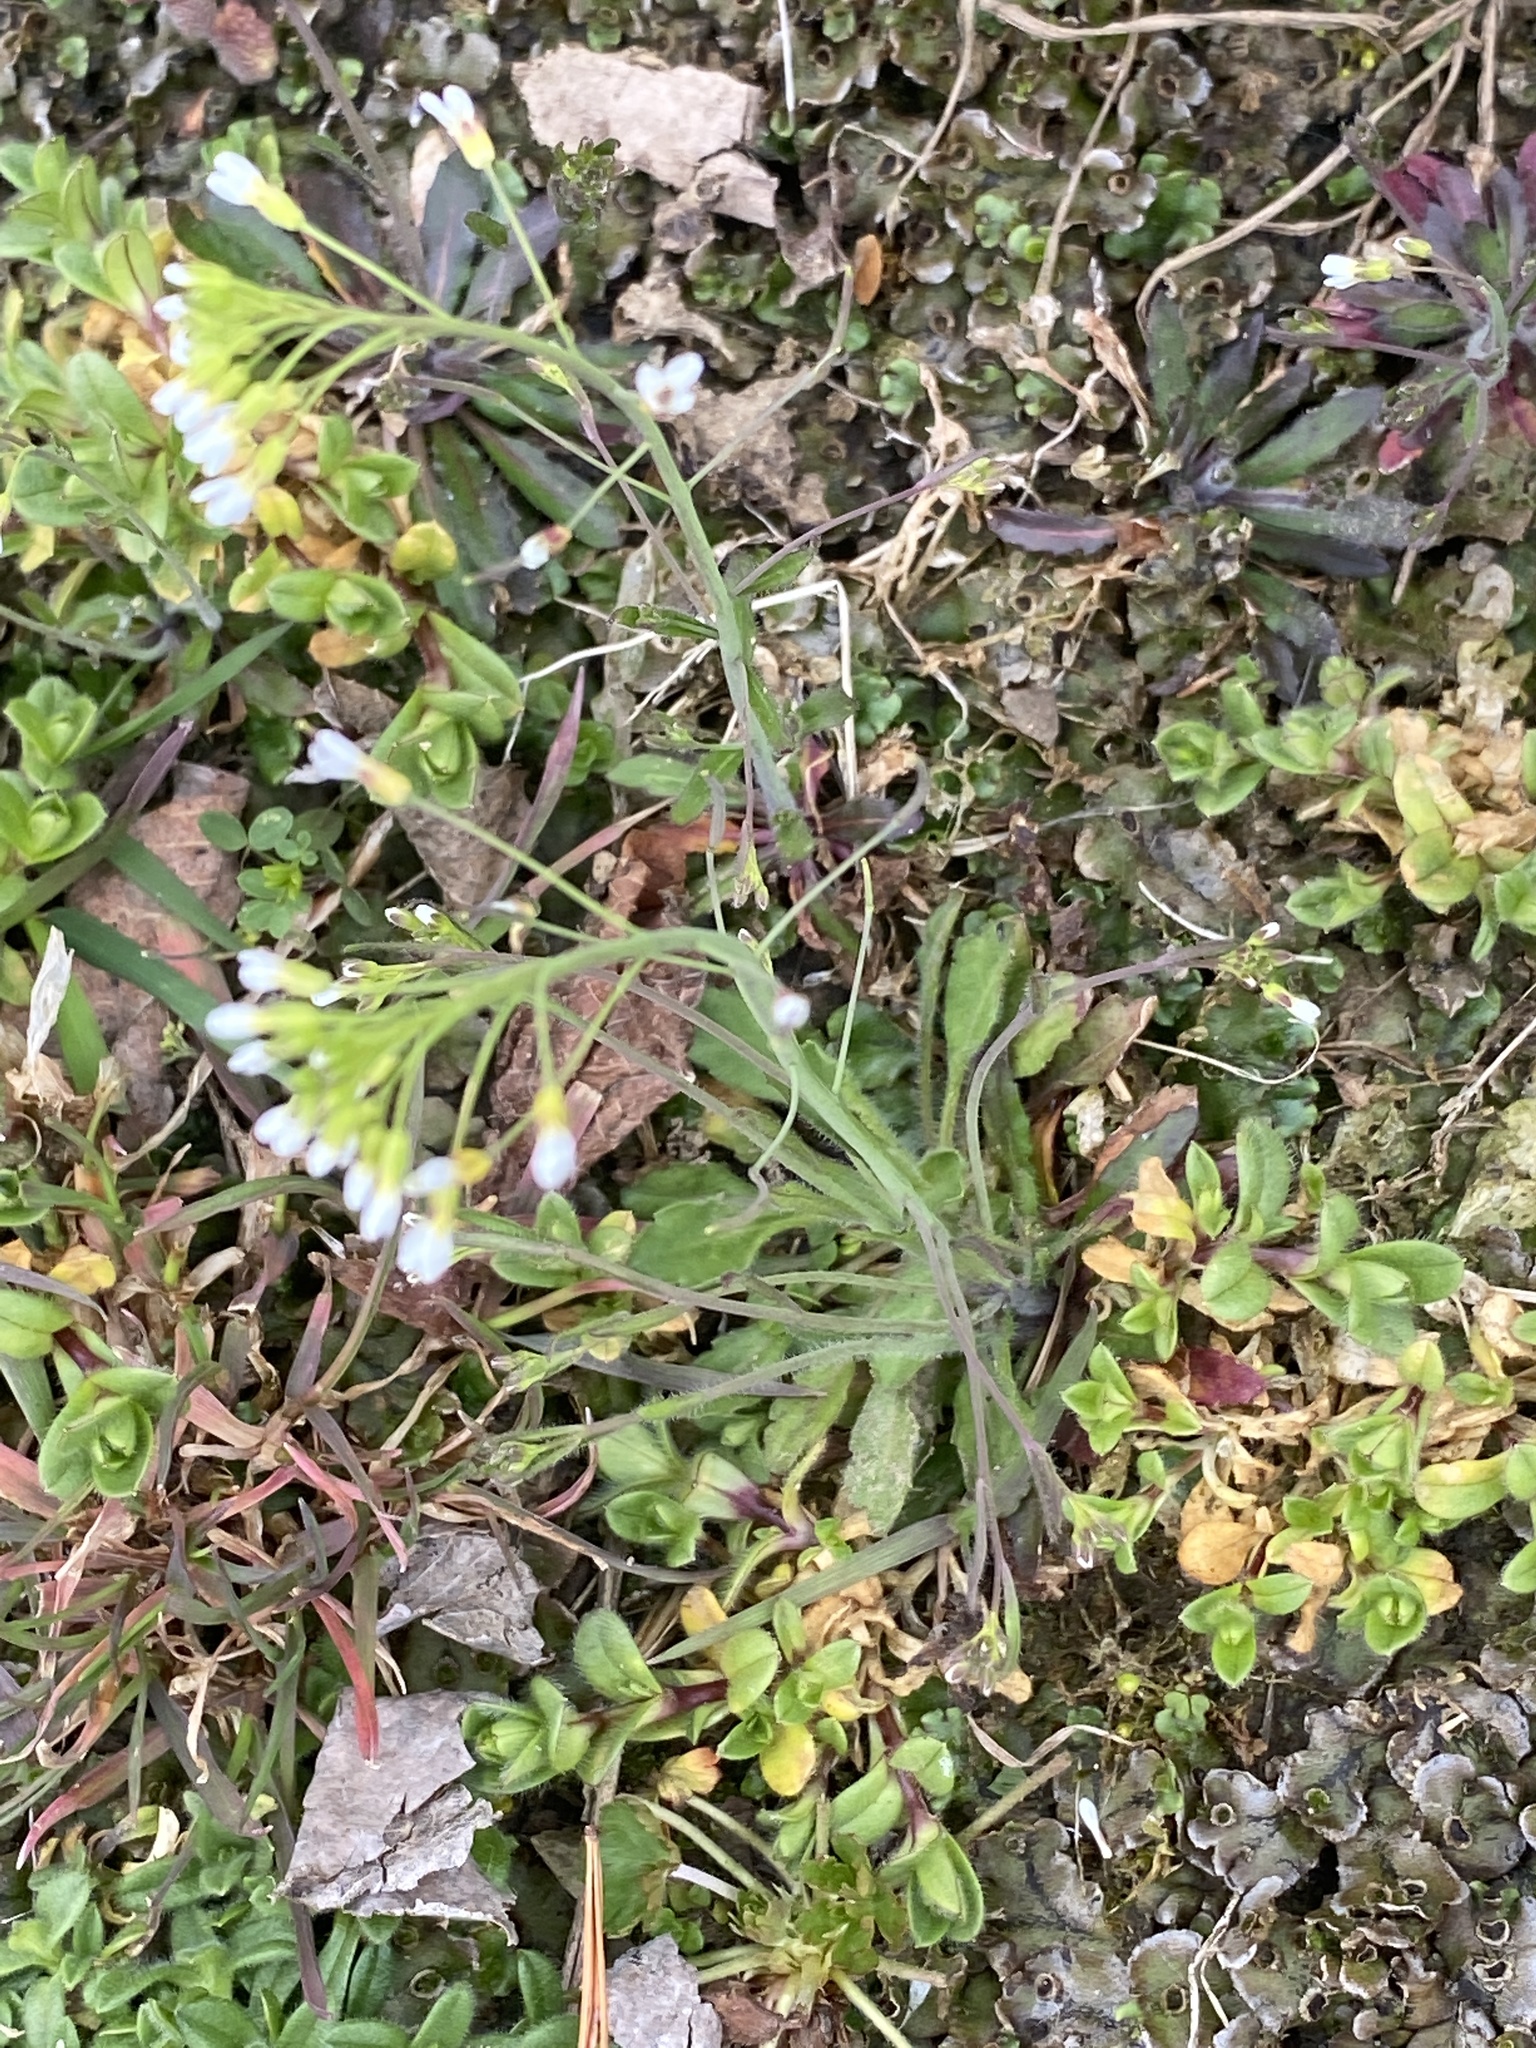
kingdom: Plantae
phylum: Tracheophyta
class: Magnoliopsida
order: Brassicales
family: Brassicaceae
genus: Arabidopsis
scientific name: Arabidopsis thaliana
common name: Thale cress
